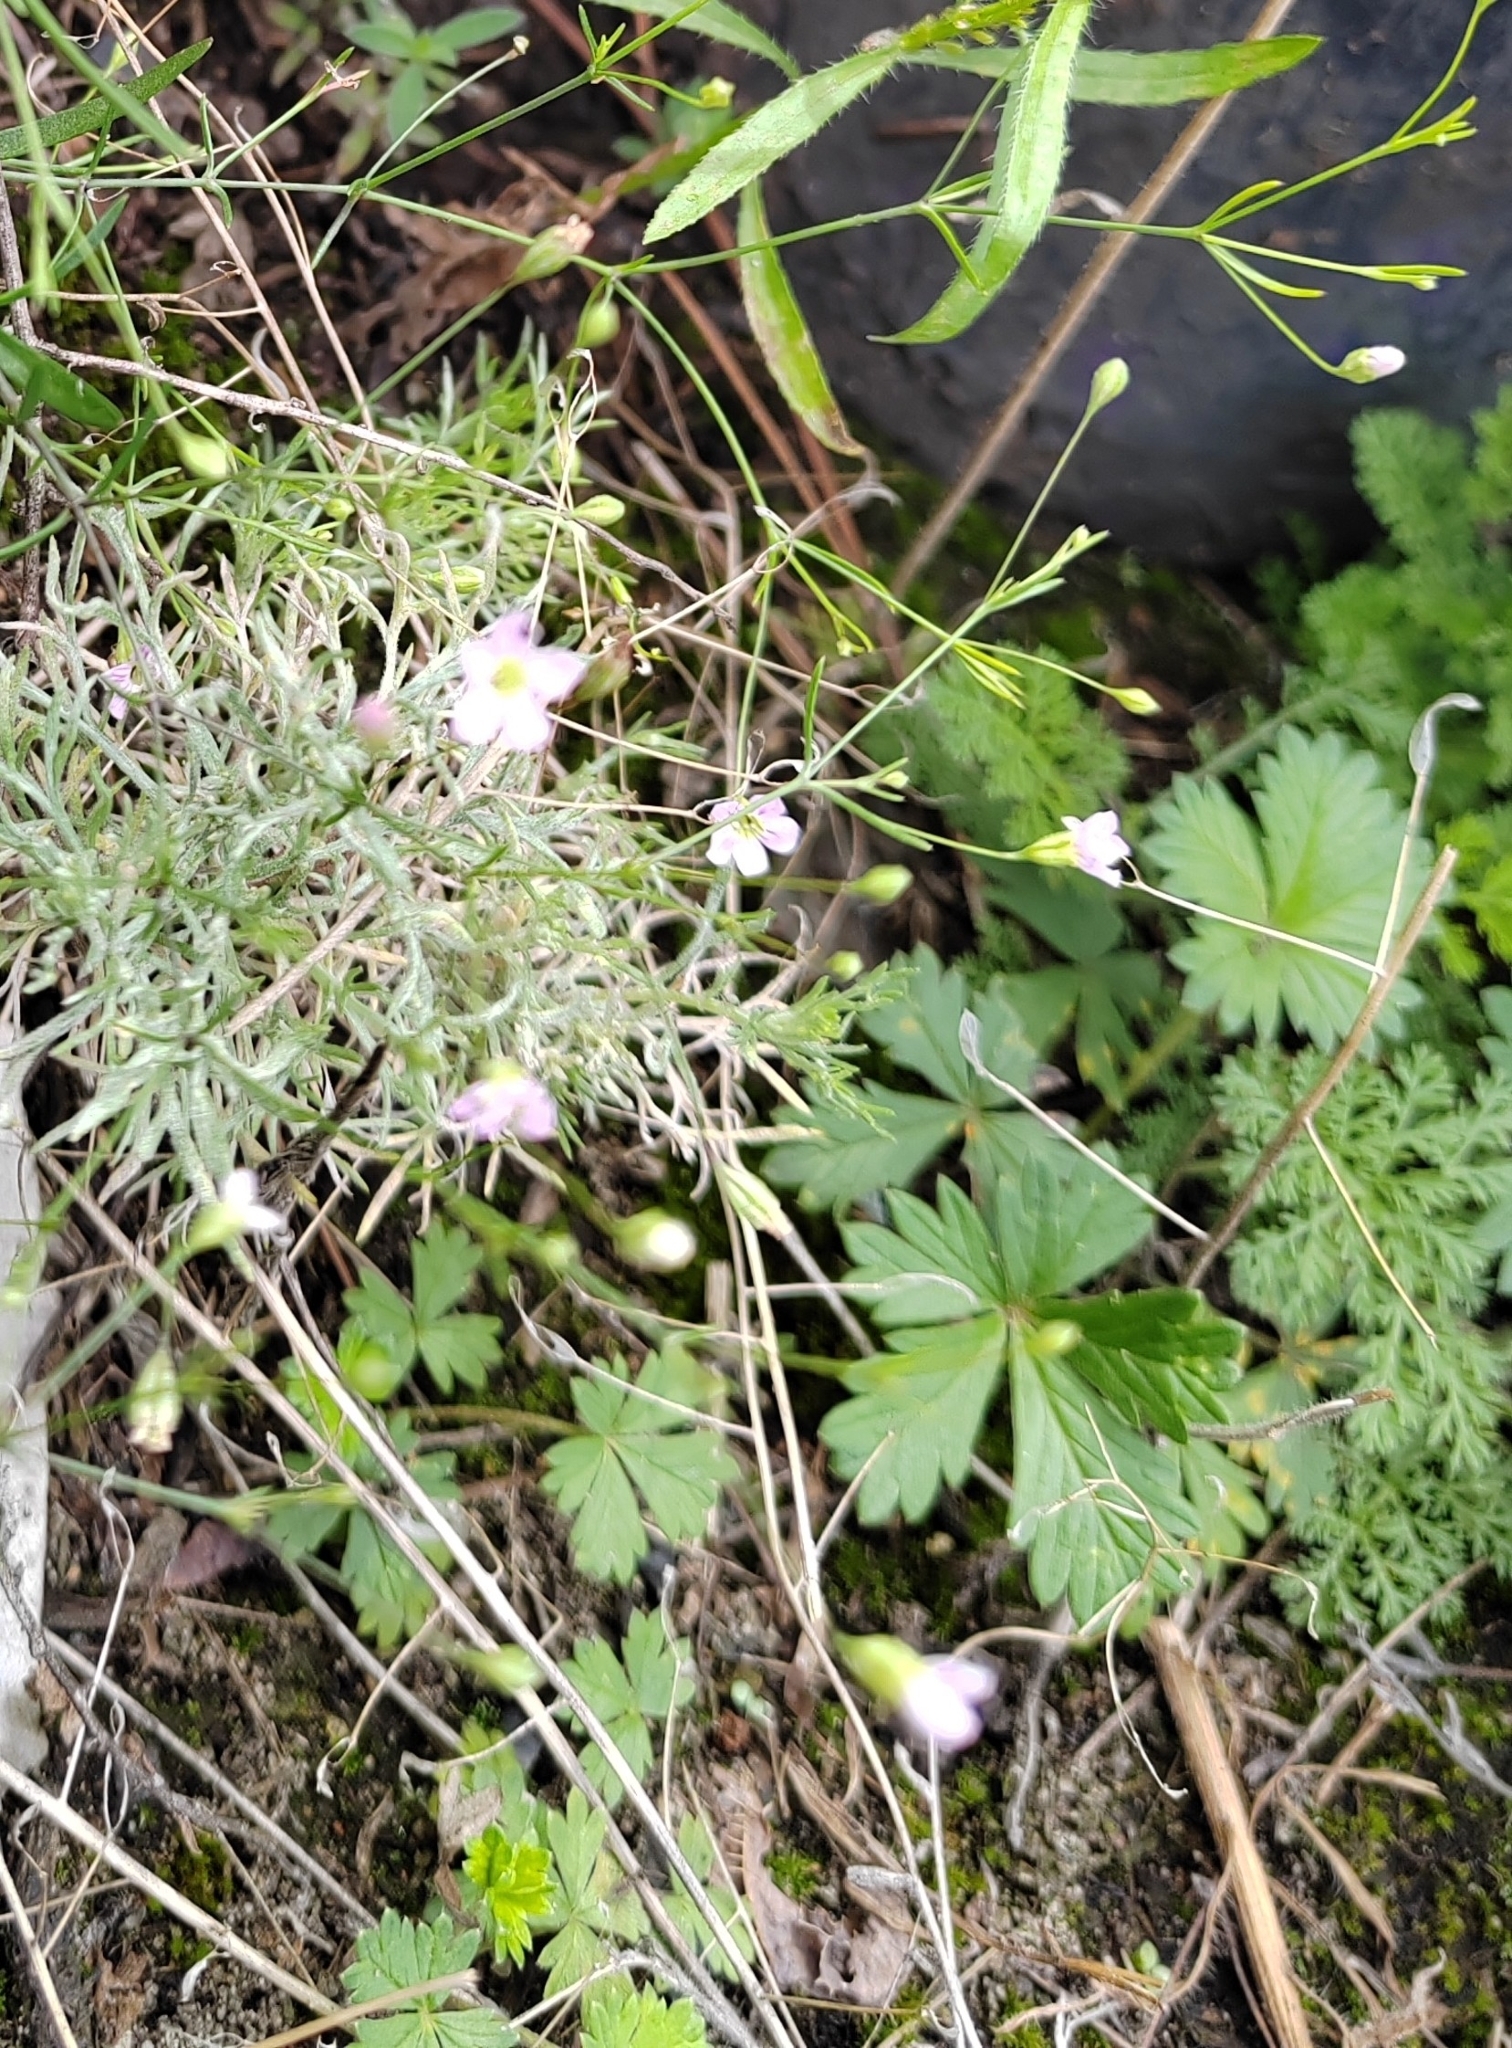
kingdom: Plantae
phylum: Tracheophyta
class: Magnoliopsida
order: Caryophyllales
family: Caryophyllaceae
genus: Psammophiliella
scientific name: Psammophiliella muralis
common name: Cushion baby's-breath
